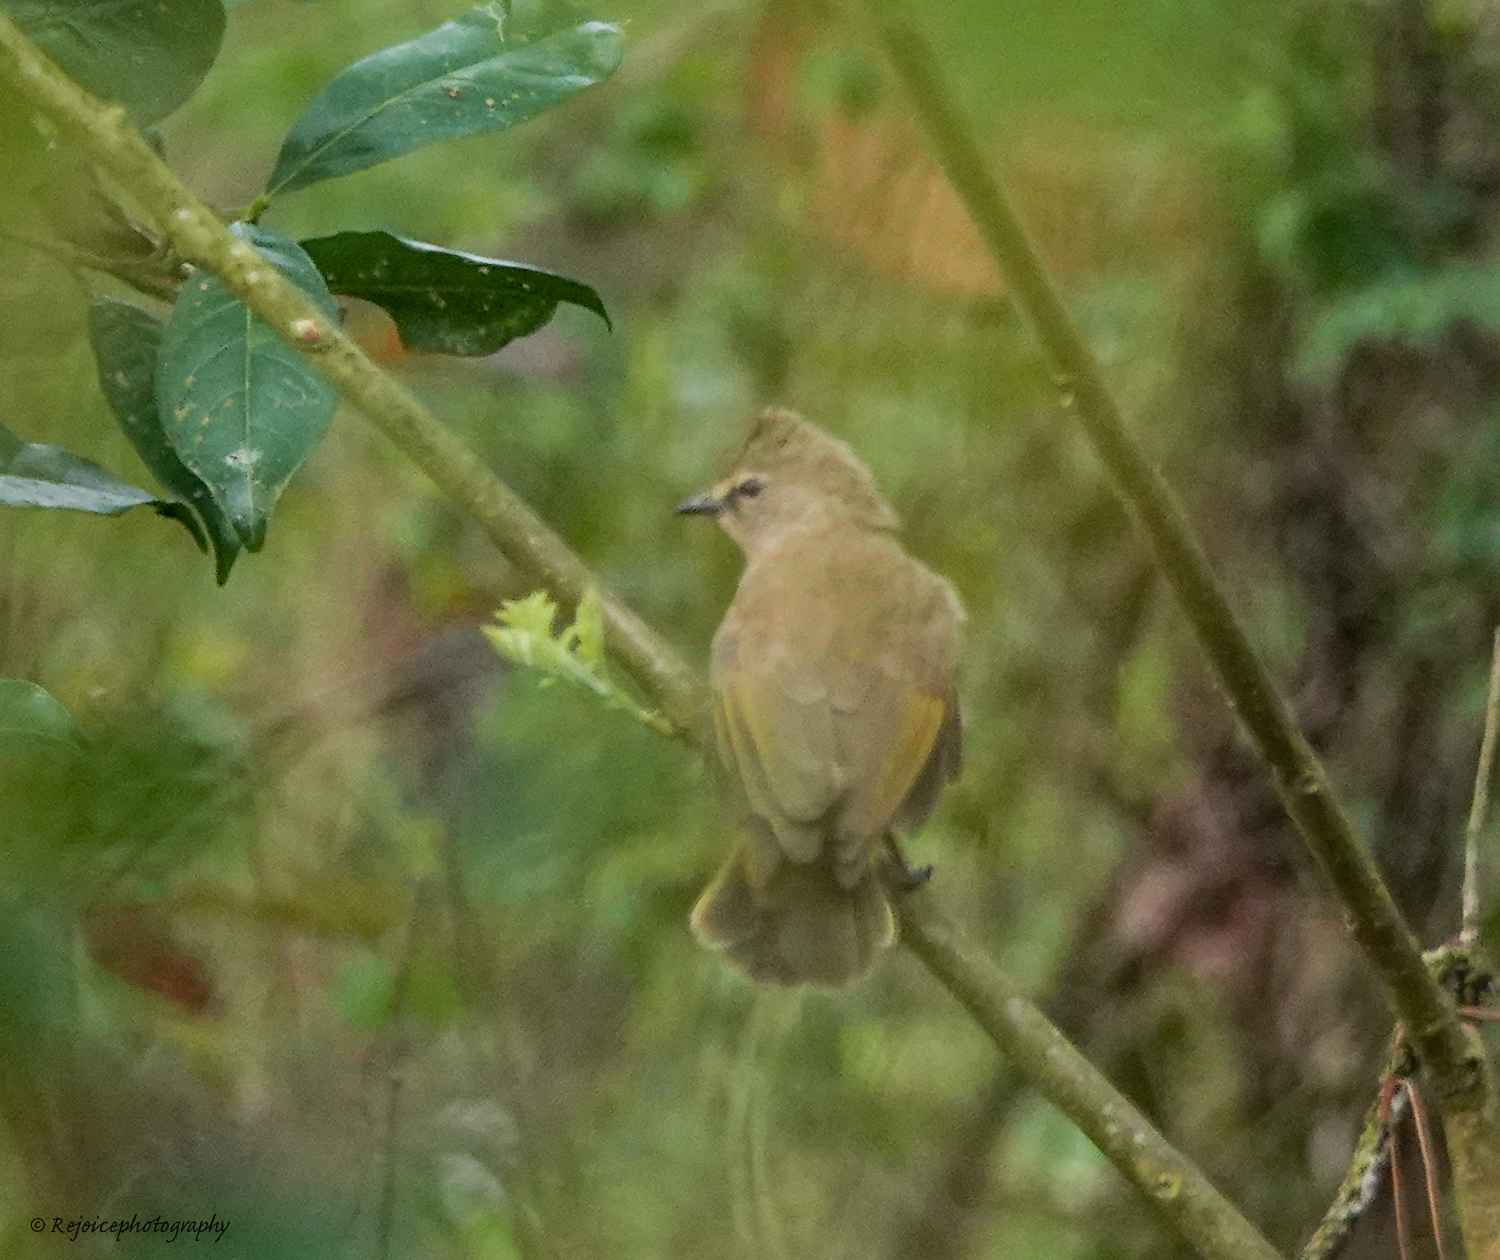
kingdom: Animalia
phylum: Chordata
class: Aves
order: Passeriformes
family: Pycnonotidae
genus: Pycnonotus
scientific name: Pycnonotus flavescens
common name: Flavescent bulbul
